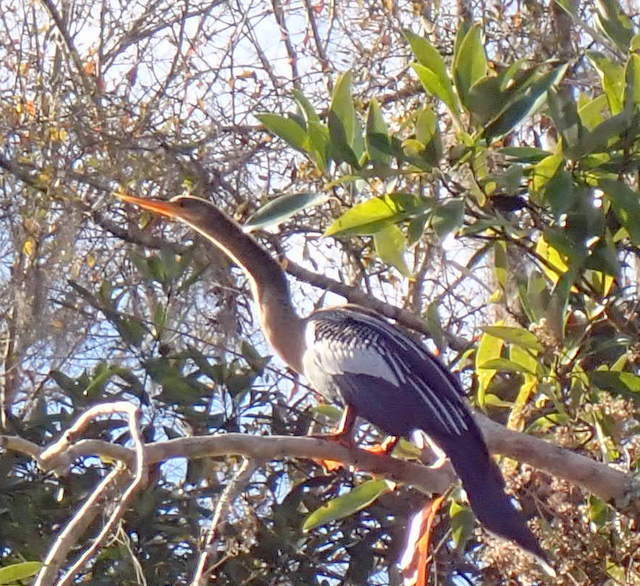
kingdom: Animalia
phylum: Chordata
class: Aves
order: Suliformes
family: Anhingidae
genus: Anhinga
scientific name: Anhinga anhinga
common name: Anhinga
